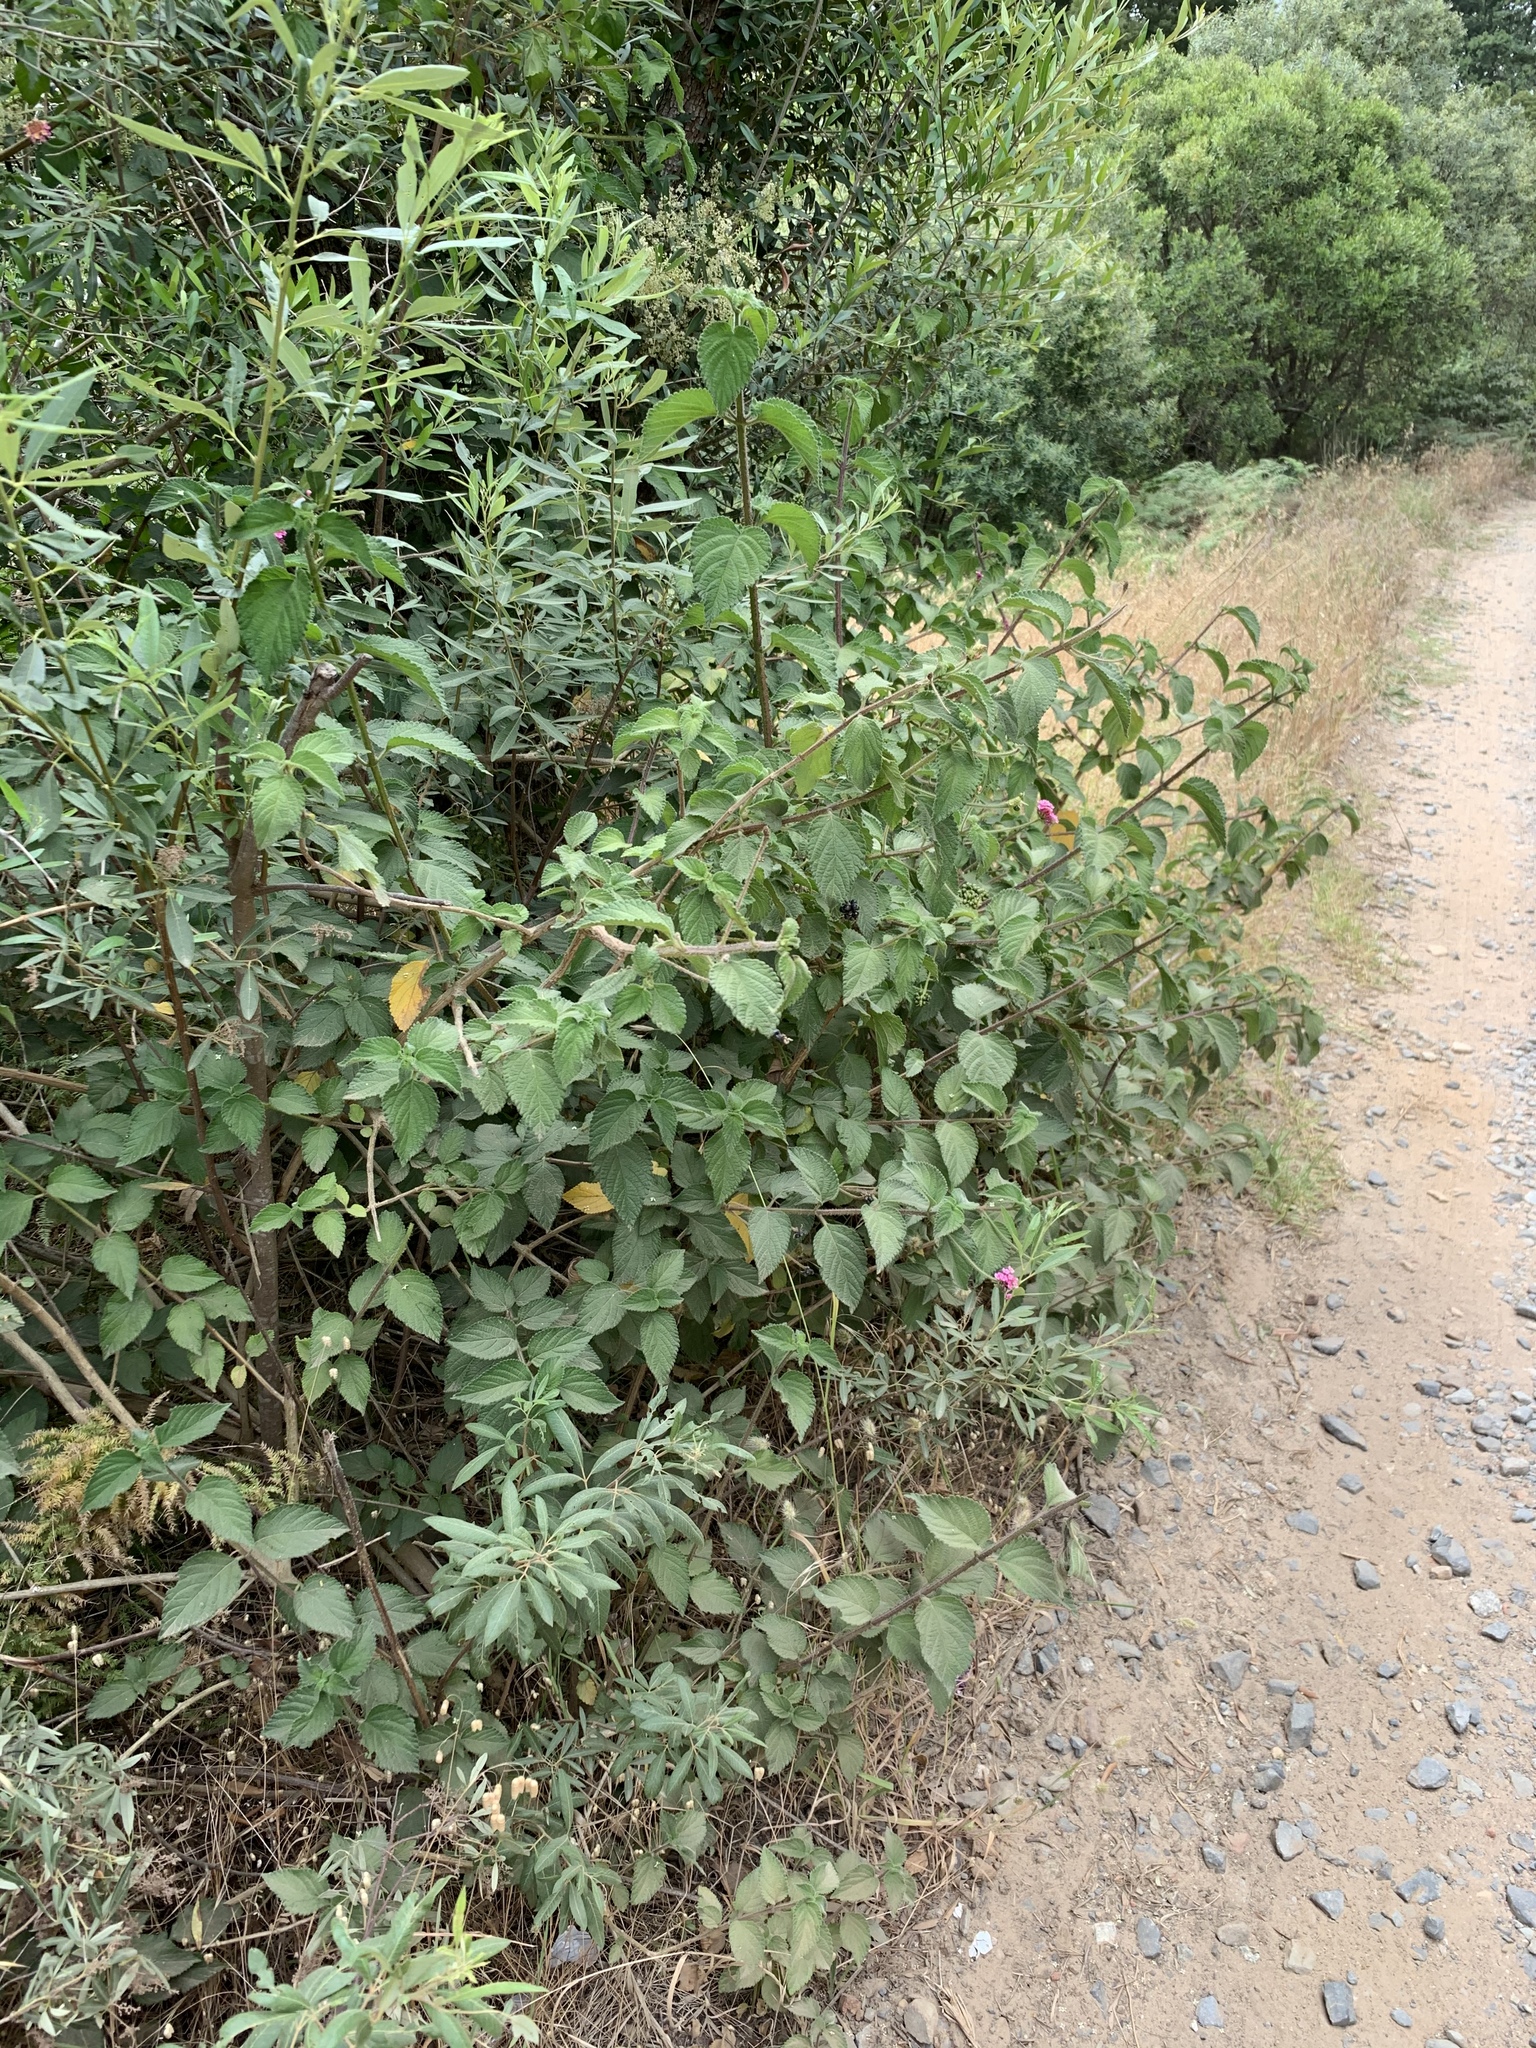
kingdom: Plantae
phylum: Tracheophyta
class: Magnoliopsida
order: Lamiales
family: Verbenaceae
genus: Lantana
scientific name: Lantana camara
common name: Lantana
